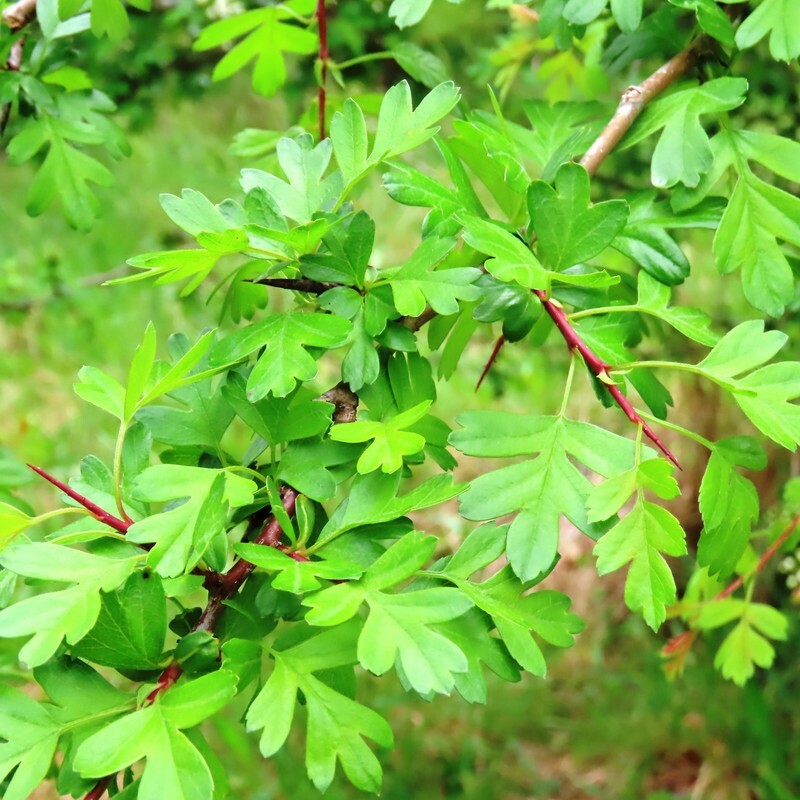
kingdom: Plantae
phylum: Tracheophyta
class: Magnoliopsida
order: Rosales
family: Rosaceae
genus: Crataegus
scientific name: Crataegus monogyna
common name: Hawthorn
